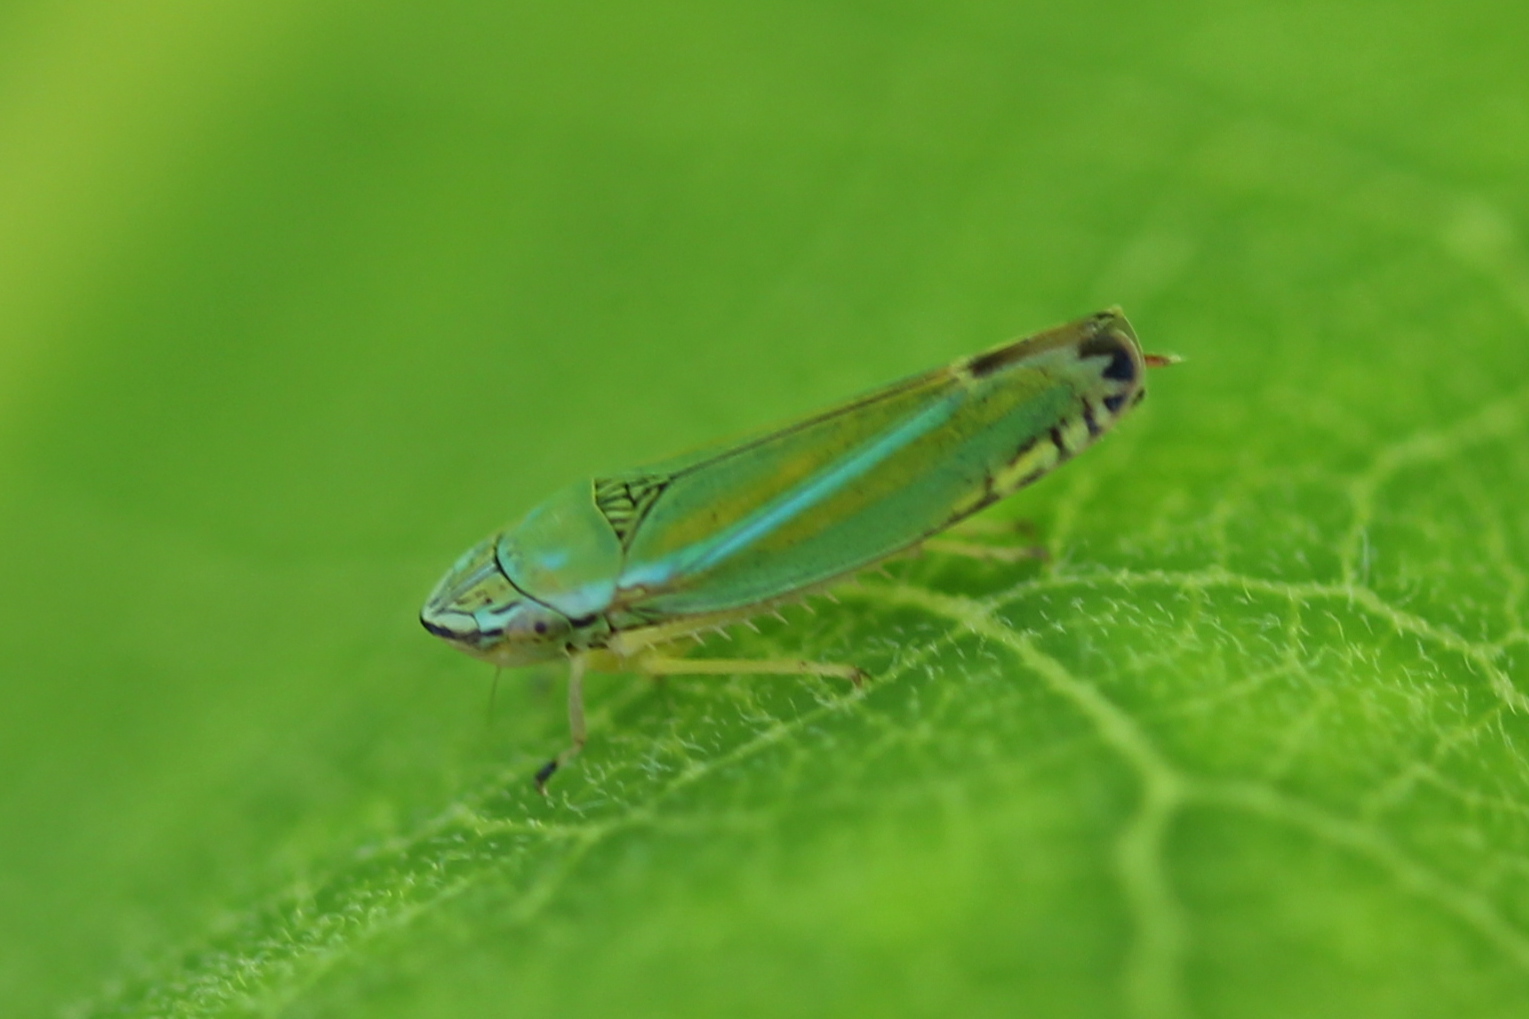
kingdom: Animalia
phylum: Arthropoda
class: Insecta
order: Hemiptera
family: Cicadellidae
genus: Graphocephala
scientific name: Graphocephala versuta
